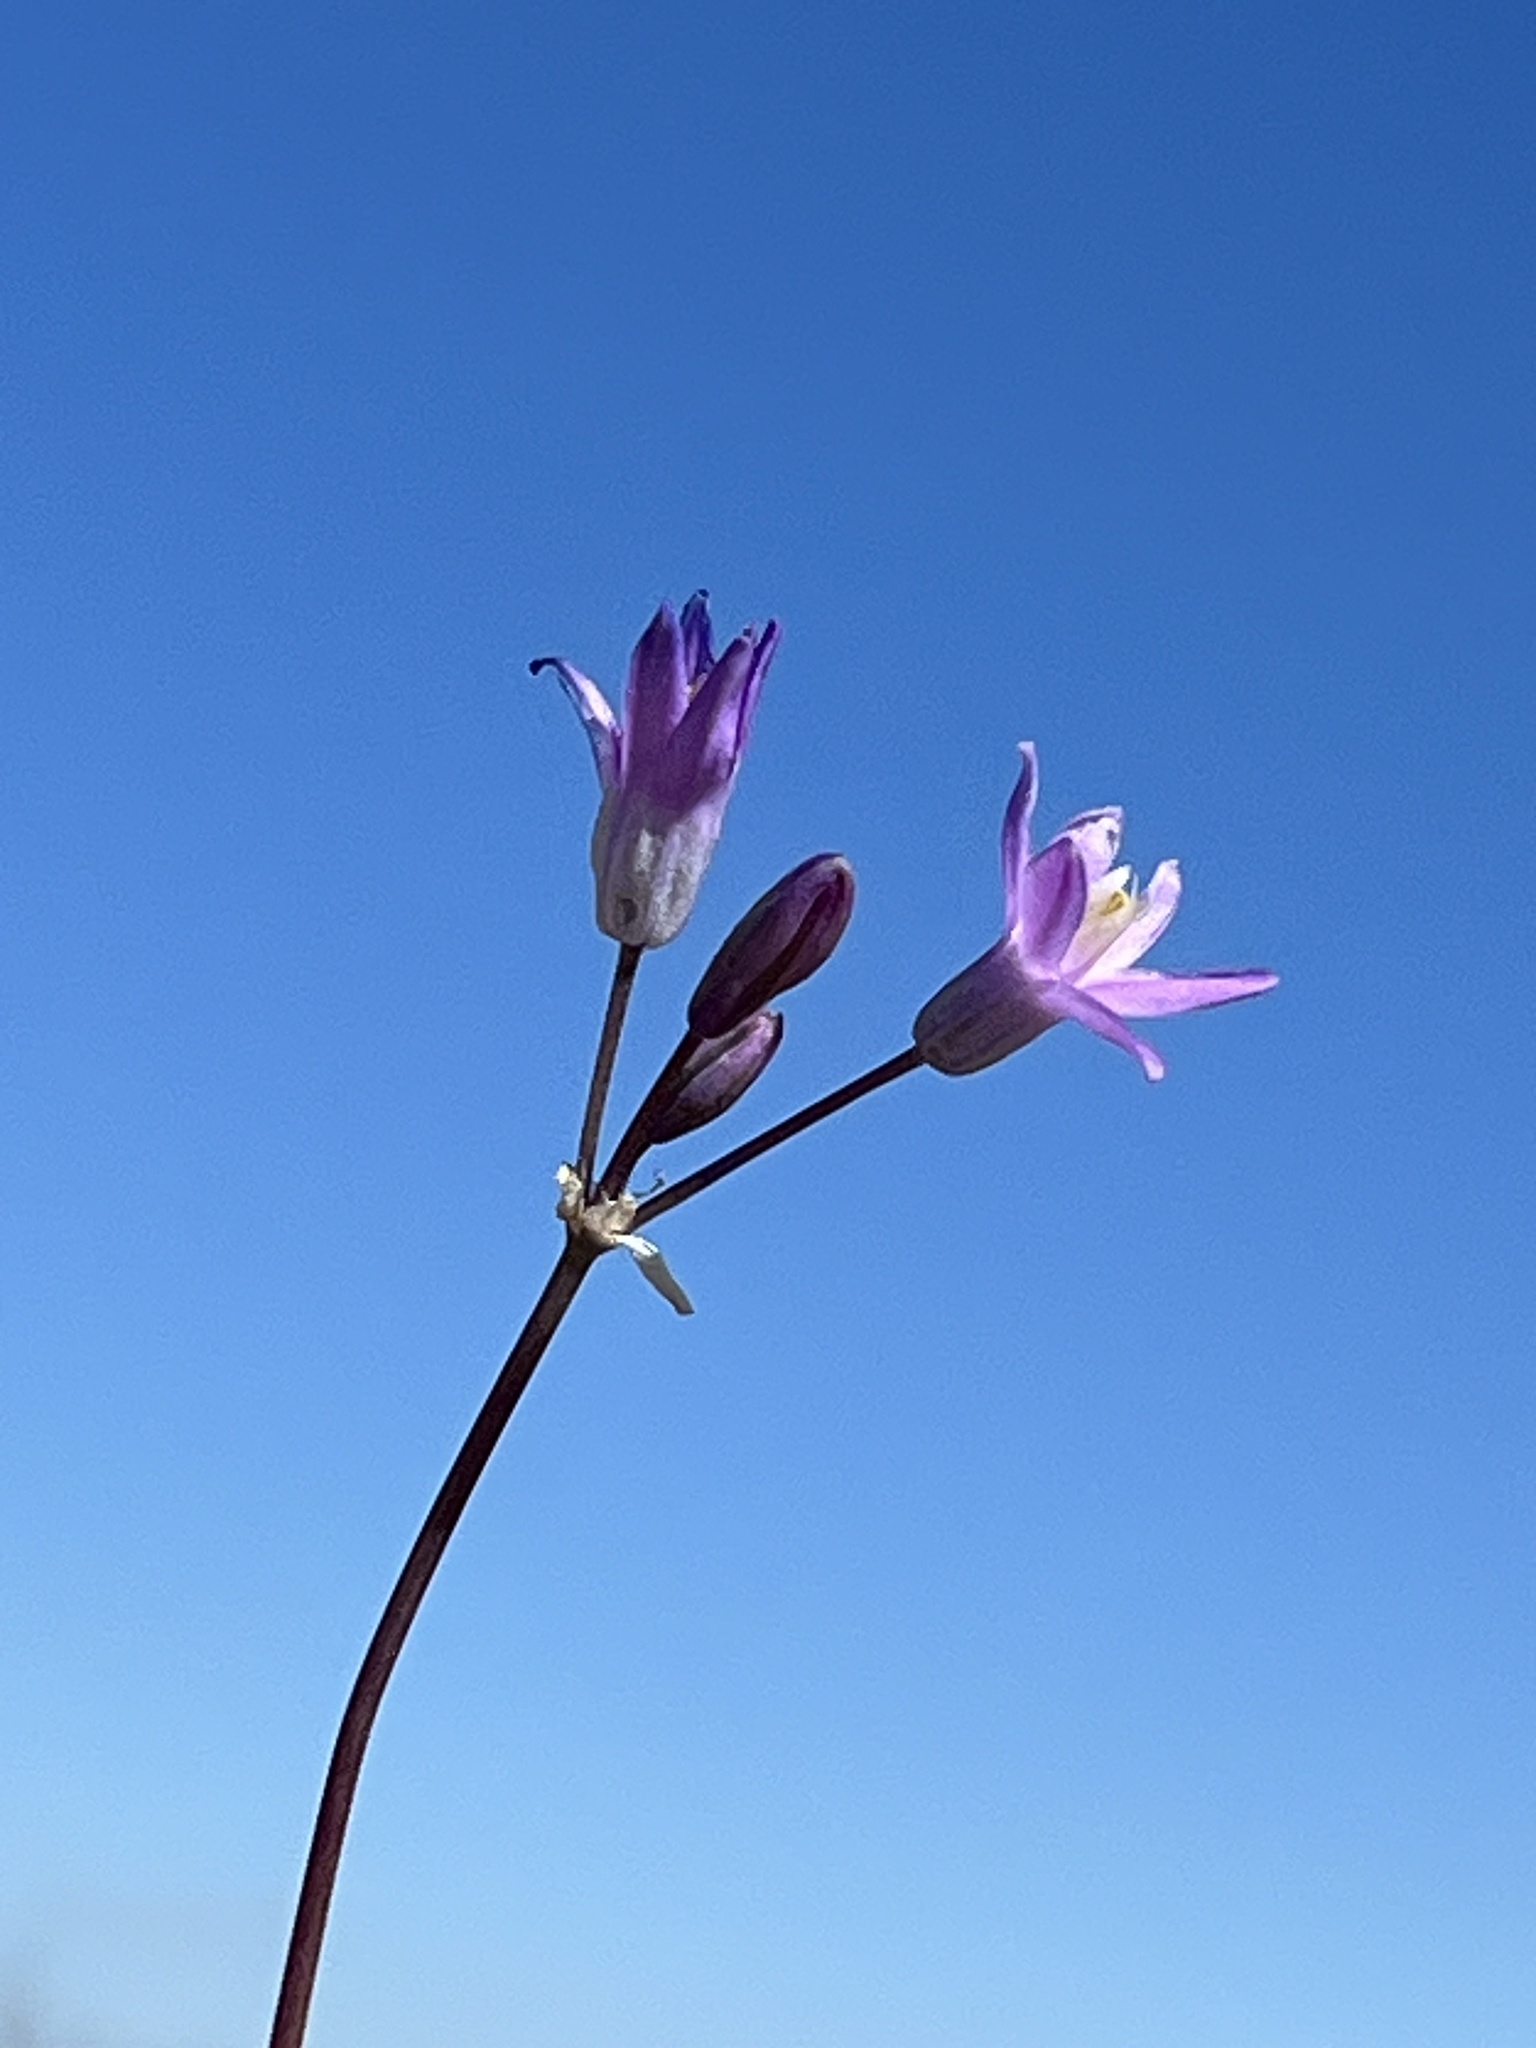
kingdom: Plantae
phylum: Tracheophyta
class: Liliopsida
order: Asparagales
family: Asparagaceae
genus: Dipterostemon
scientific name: Dipterostemon capitatus
